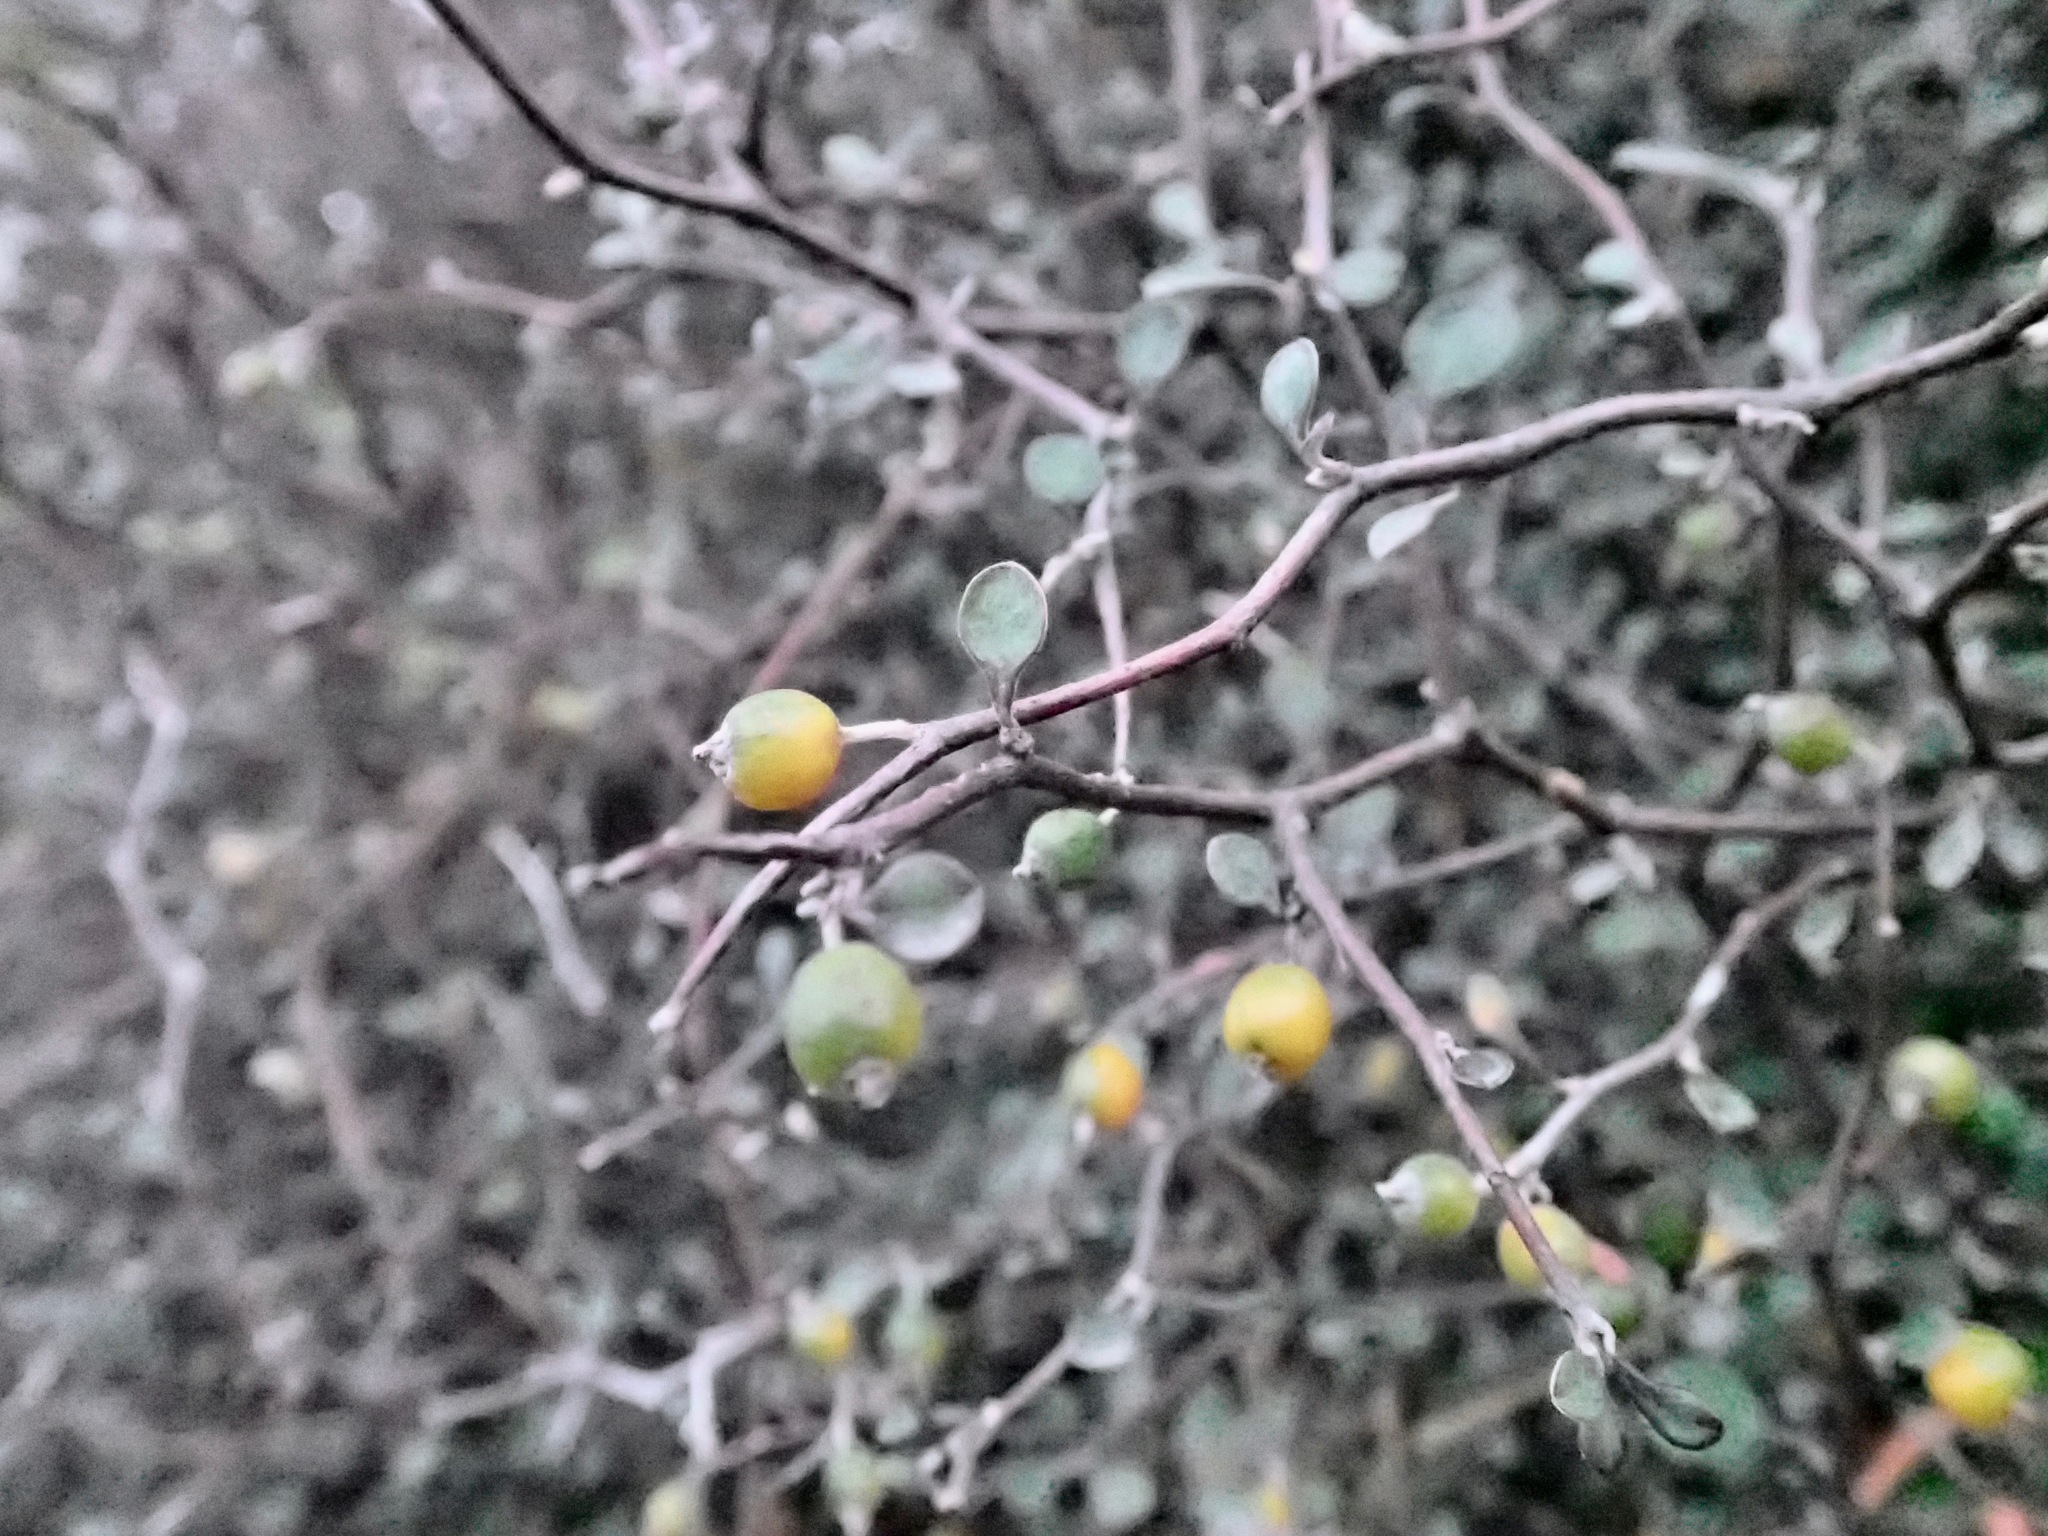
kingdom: Plantae
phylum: Tracheophyta
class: Magnoliopsida
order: Asterales
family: Argophyllaceae
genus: Corokia
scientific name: Corokia cotoneaster
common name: Wire nettingbush
